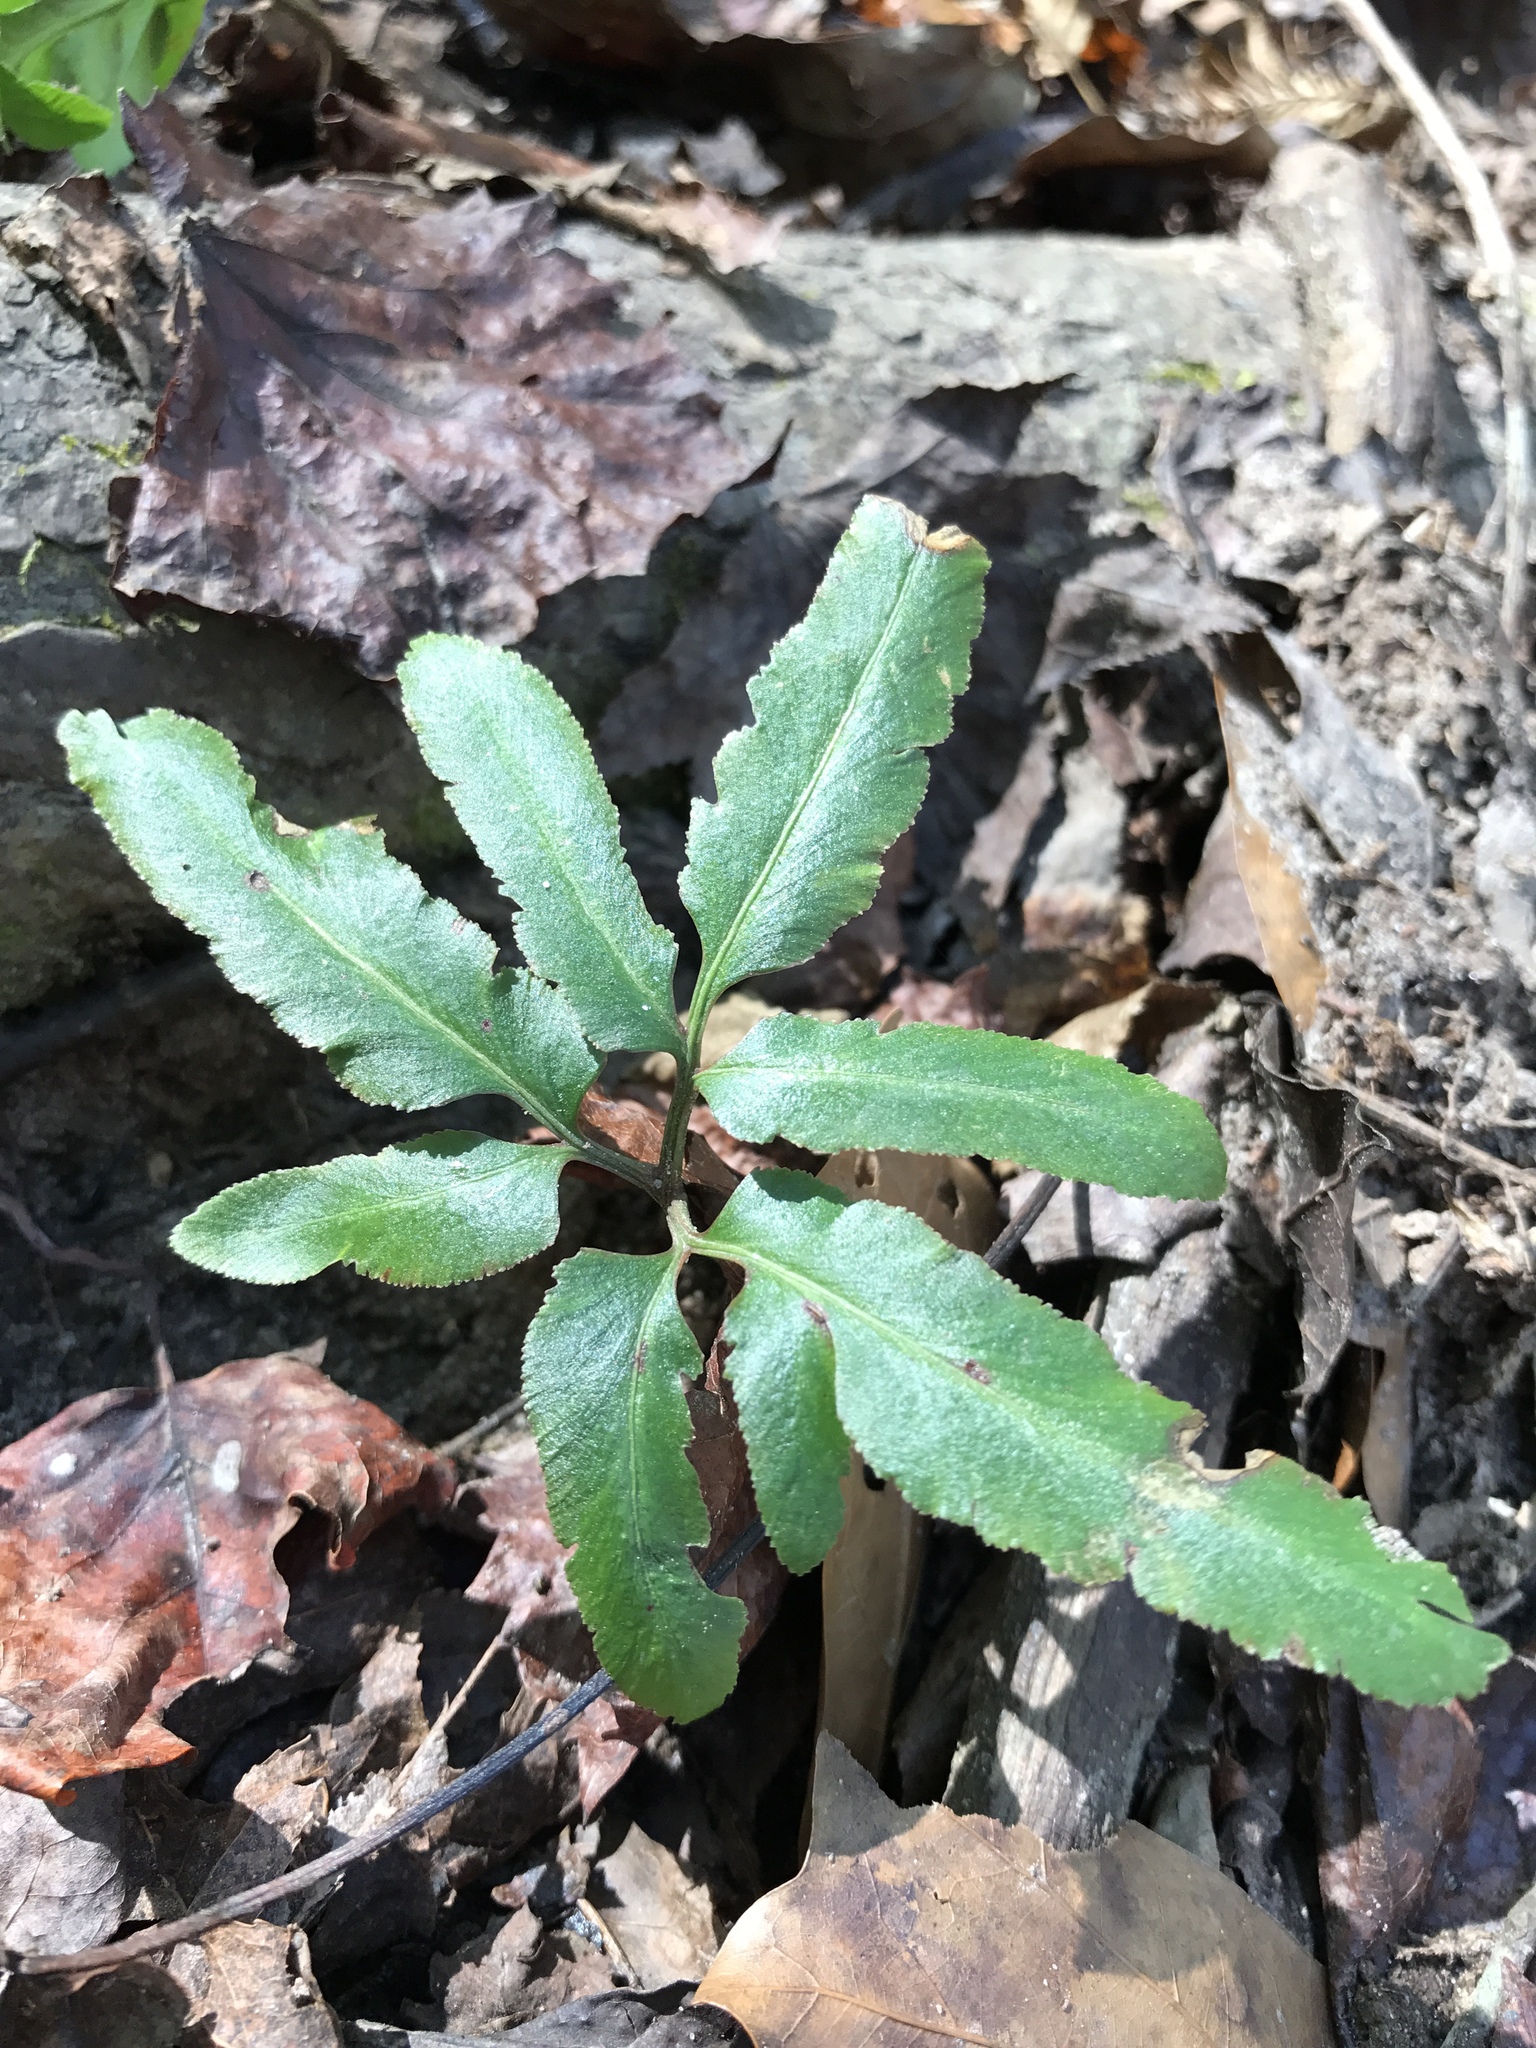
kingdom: Plantae
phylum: Tracheophyta
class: Polypodiopsida
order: Ophioglossales
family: Ophioglossaceae
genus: Sceptridium
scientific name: Sceptridium biternatum
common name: Sparse-lobed grapefern
